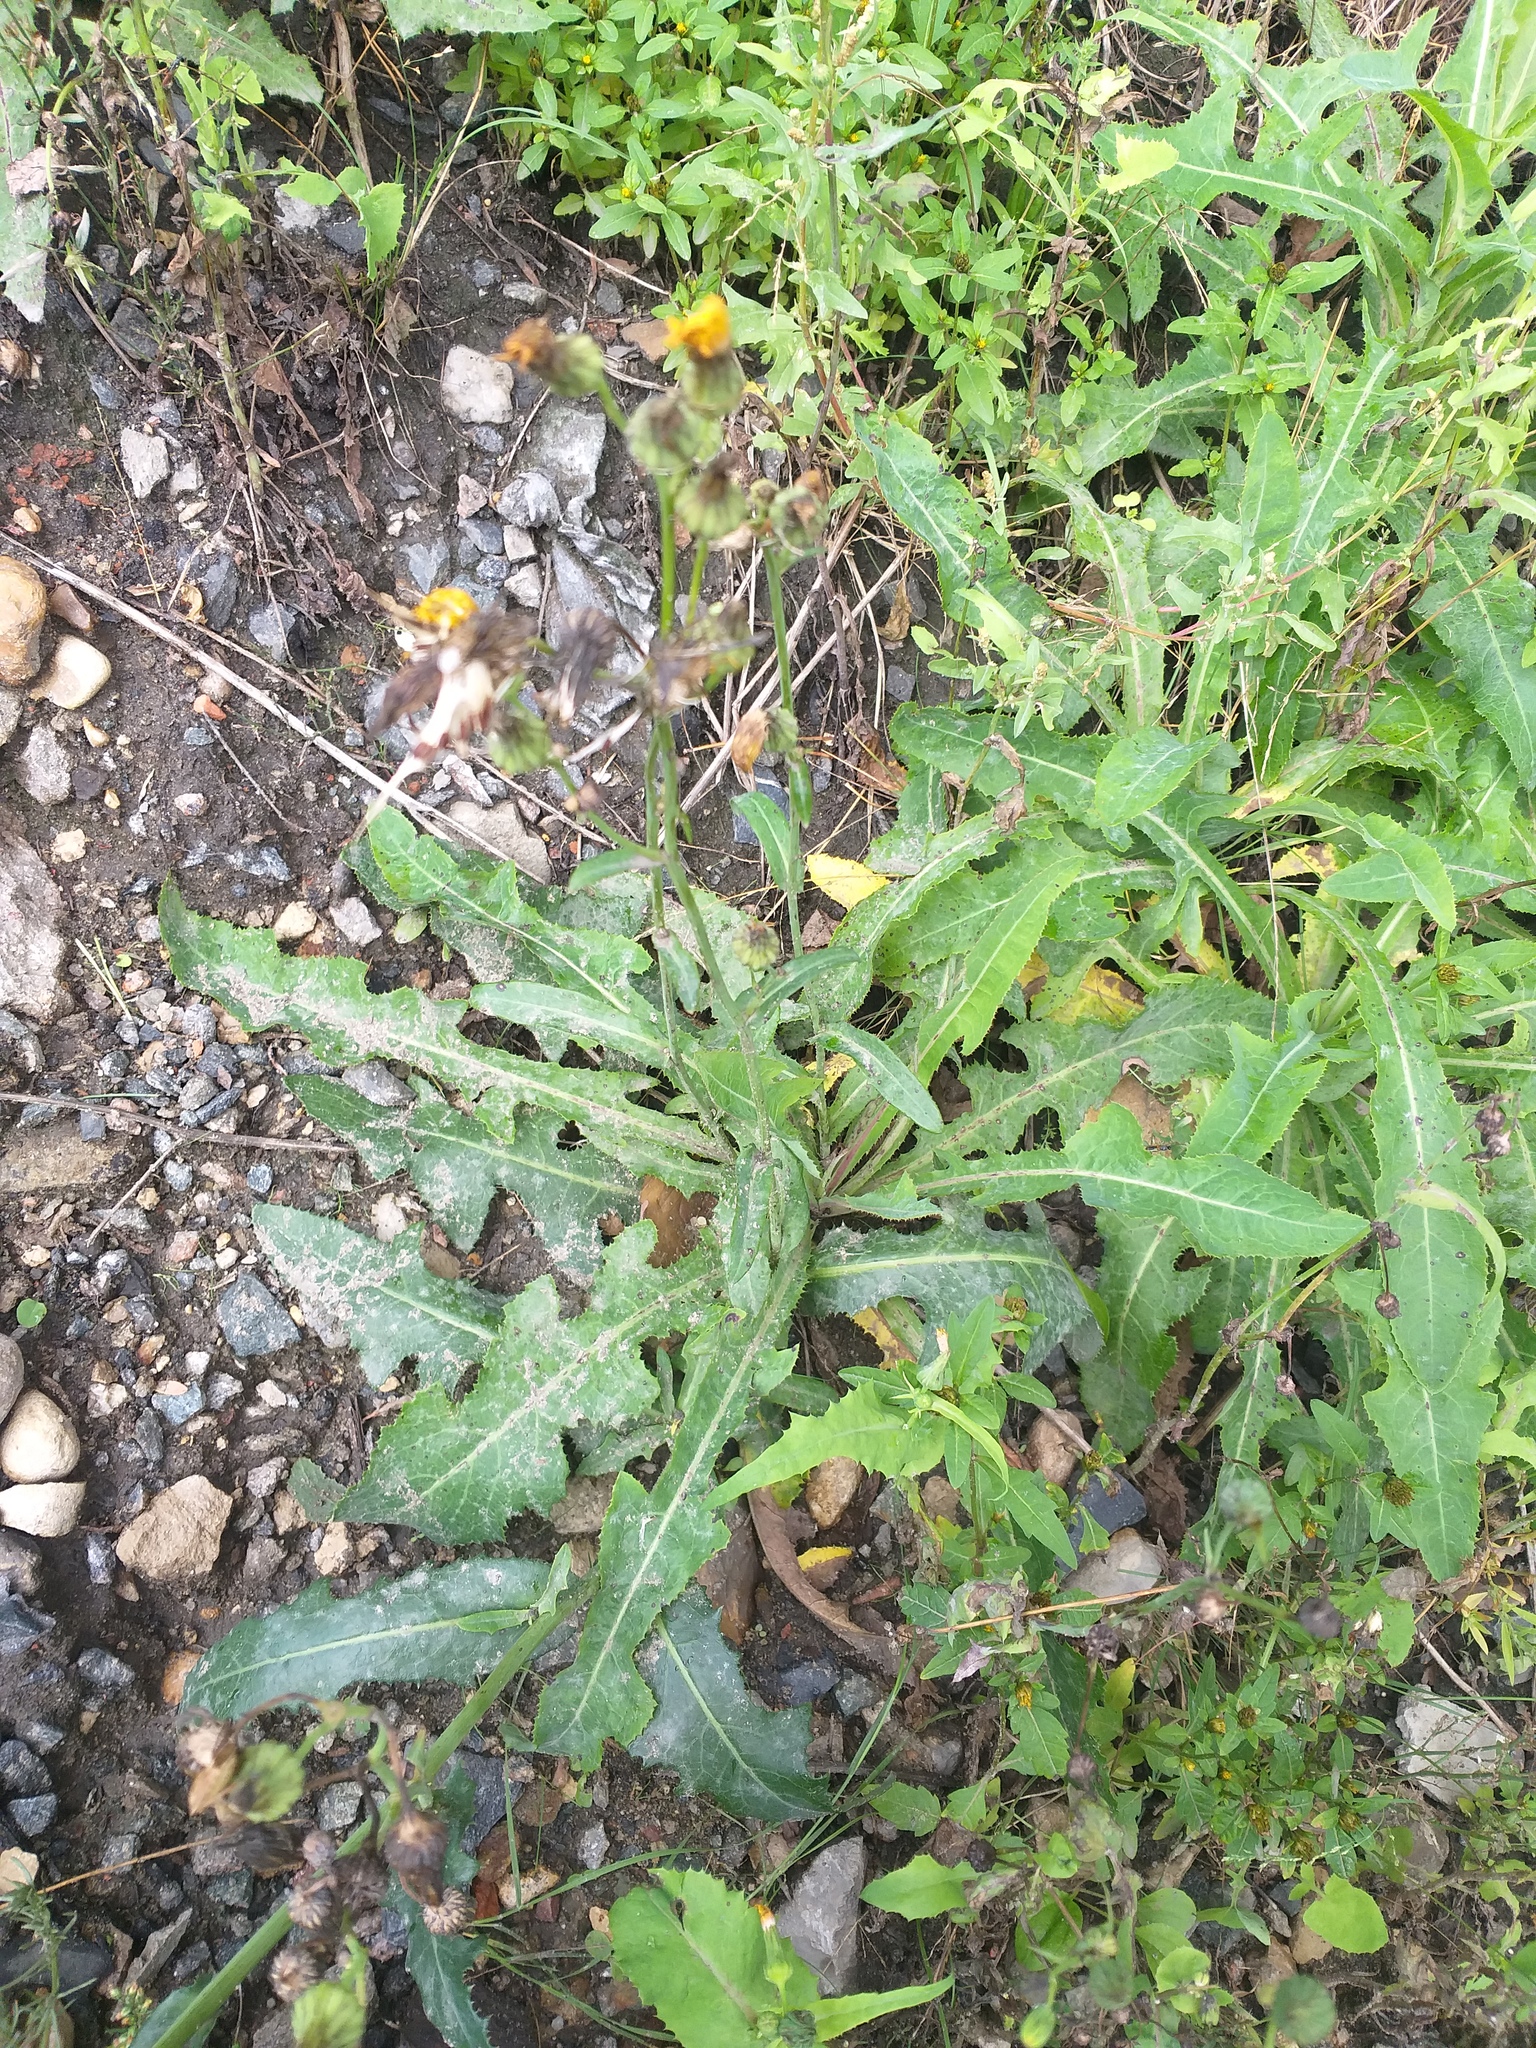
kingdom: Plantae
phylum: Tracheophyta
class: Magnoliopsida
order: Asterales
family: Asteraceae
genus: Sonchus
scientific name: Sonchus arvensis
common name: Perennial sow-thistle
